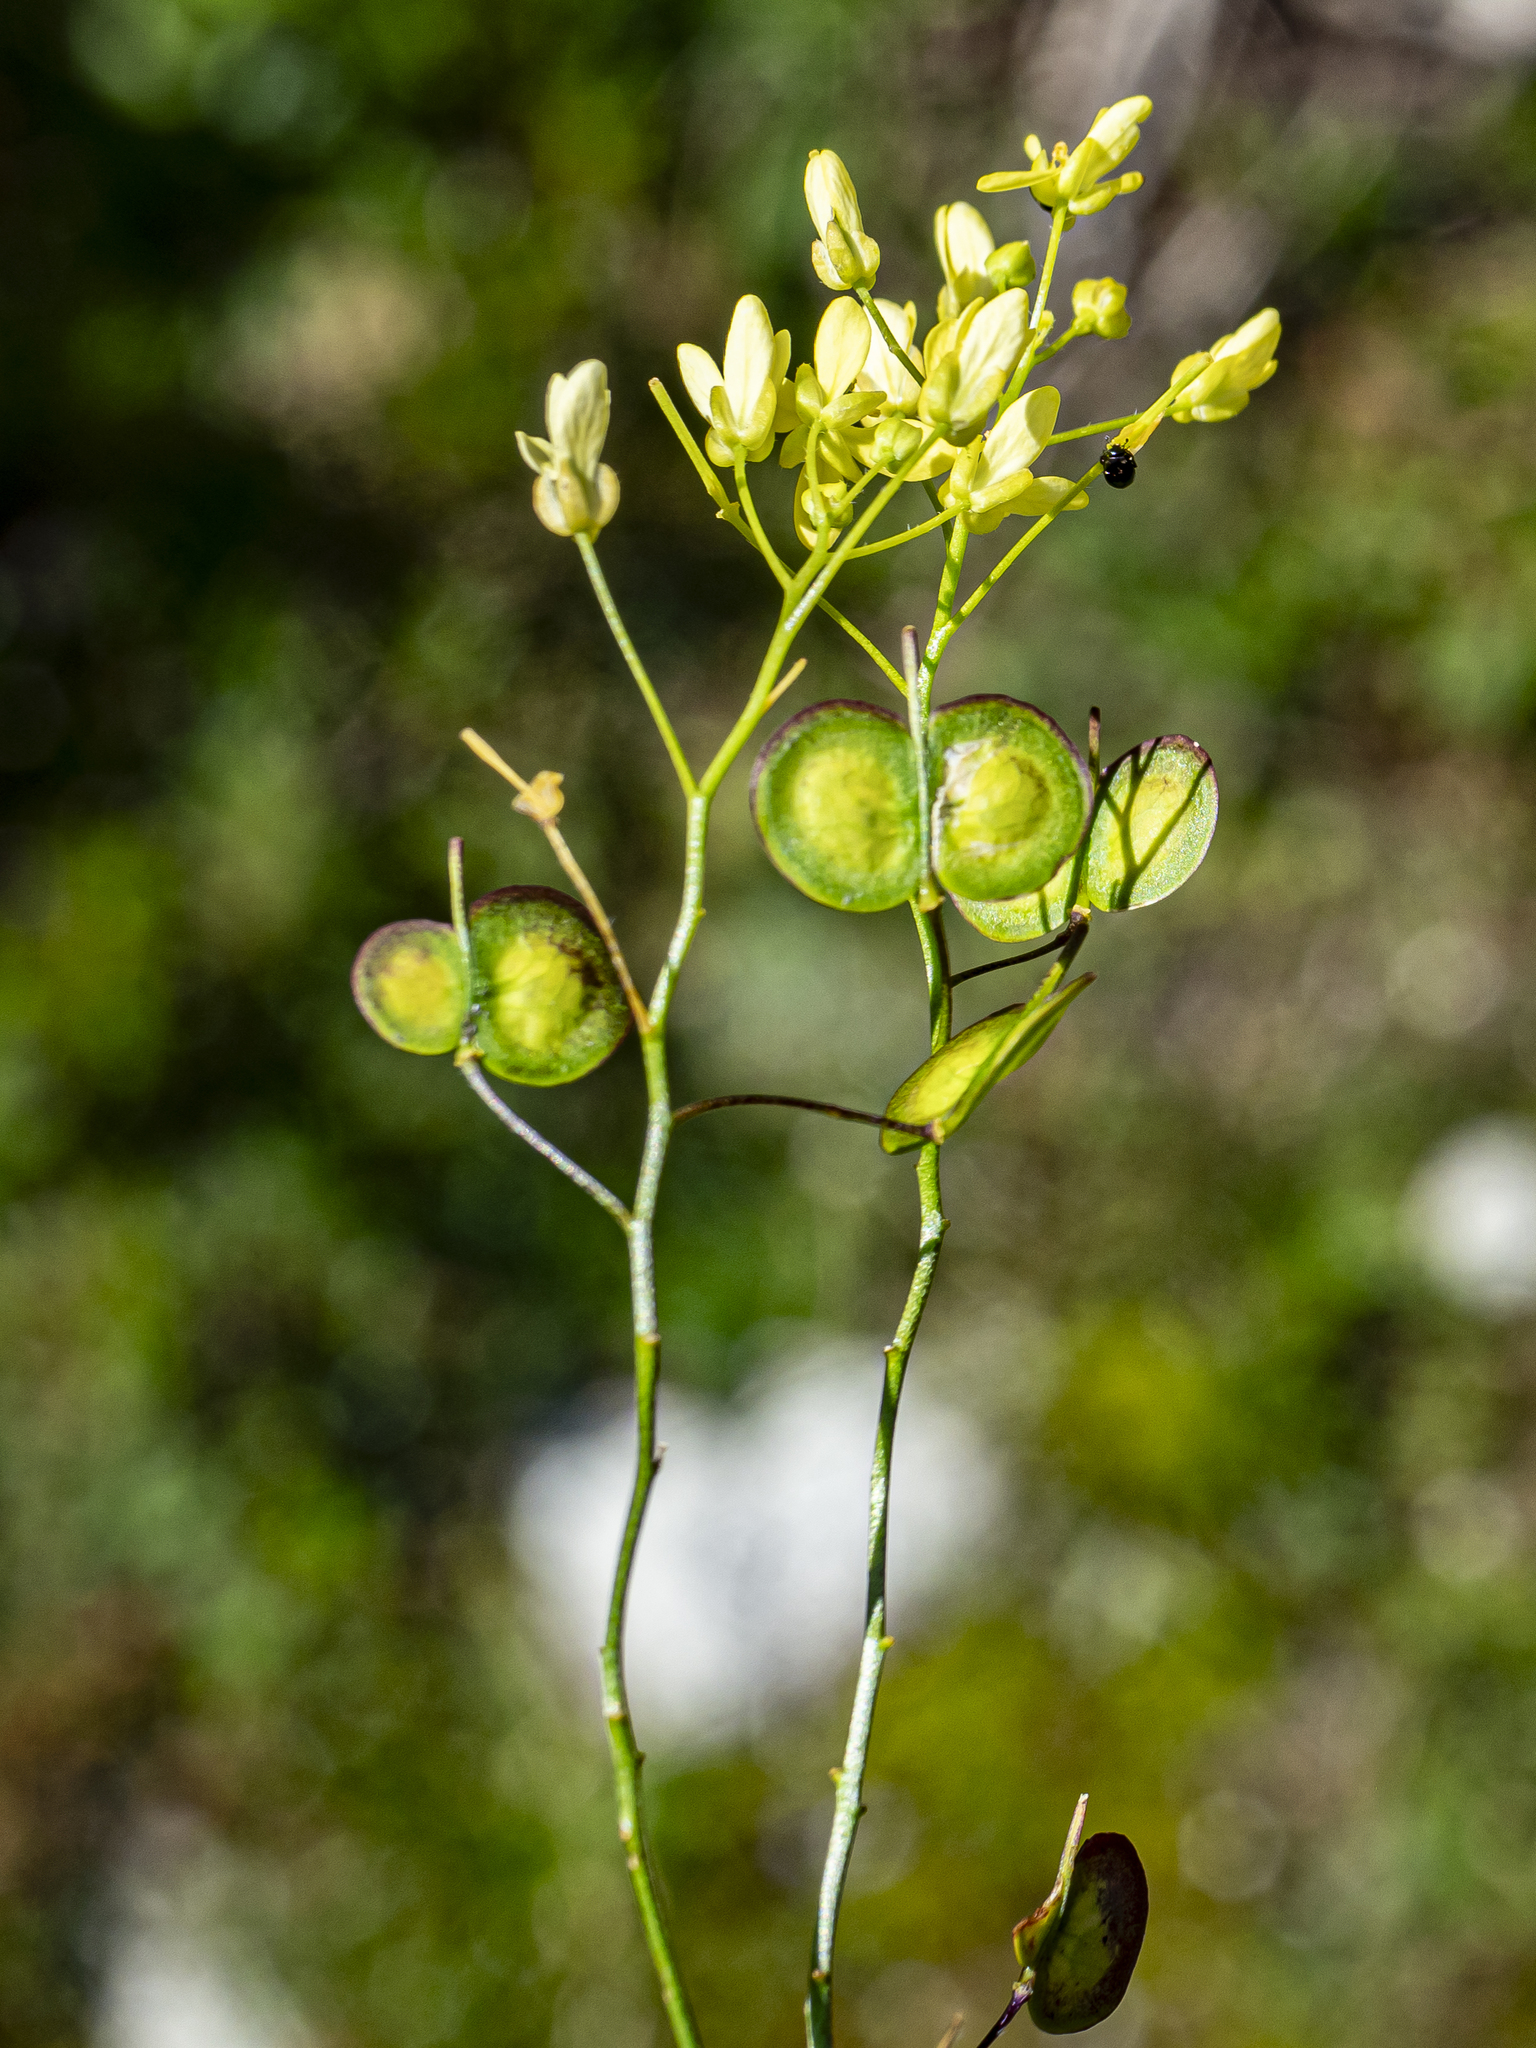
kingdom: Plantae
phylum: Tracheophyta
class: Magnoliopsida
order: Brassicales
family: Brassicaceae
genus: Biscutella
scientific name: Biscutella laevigata
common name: Buckler mustard
